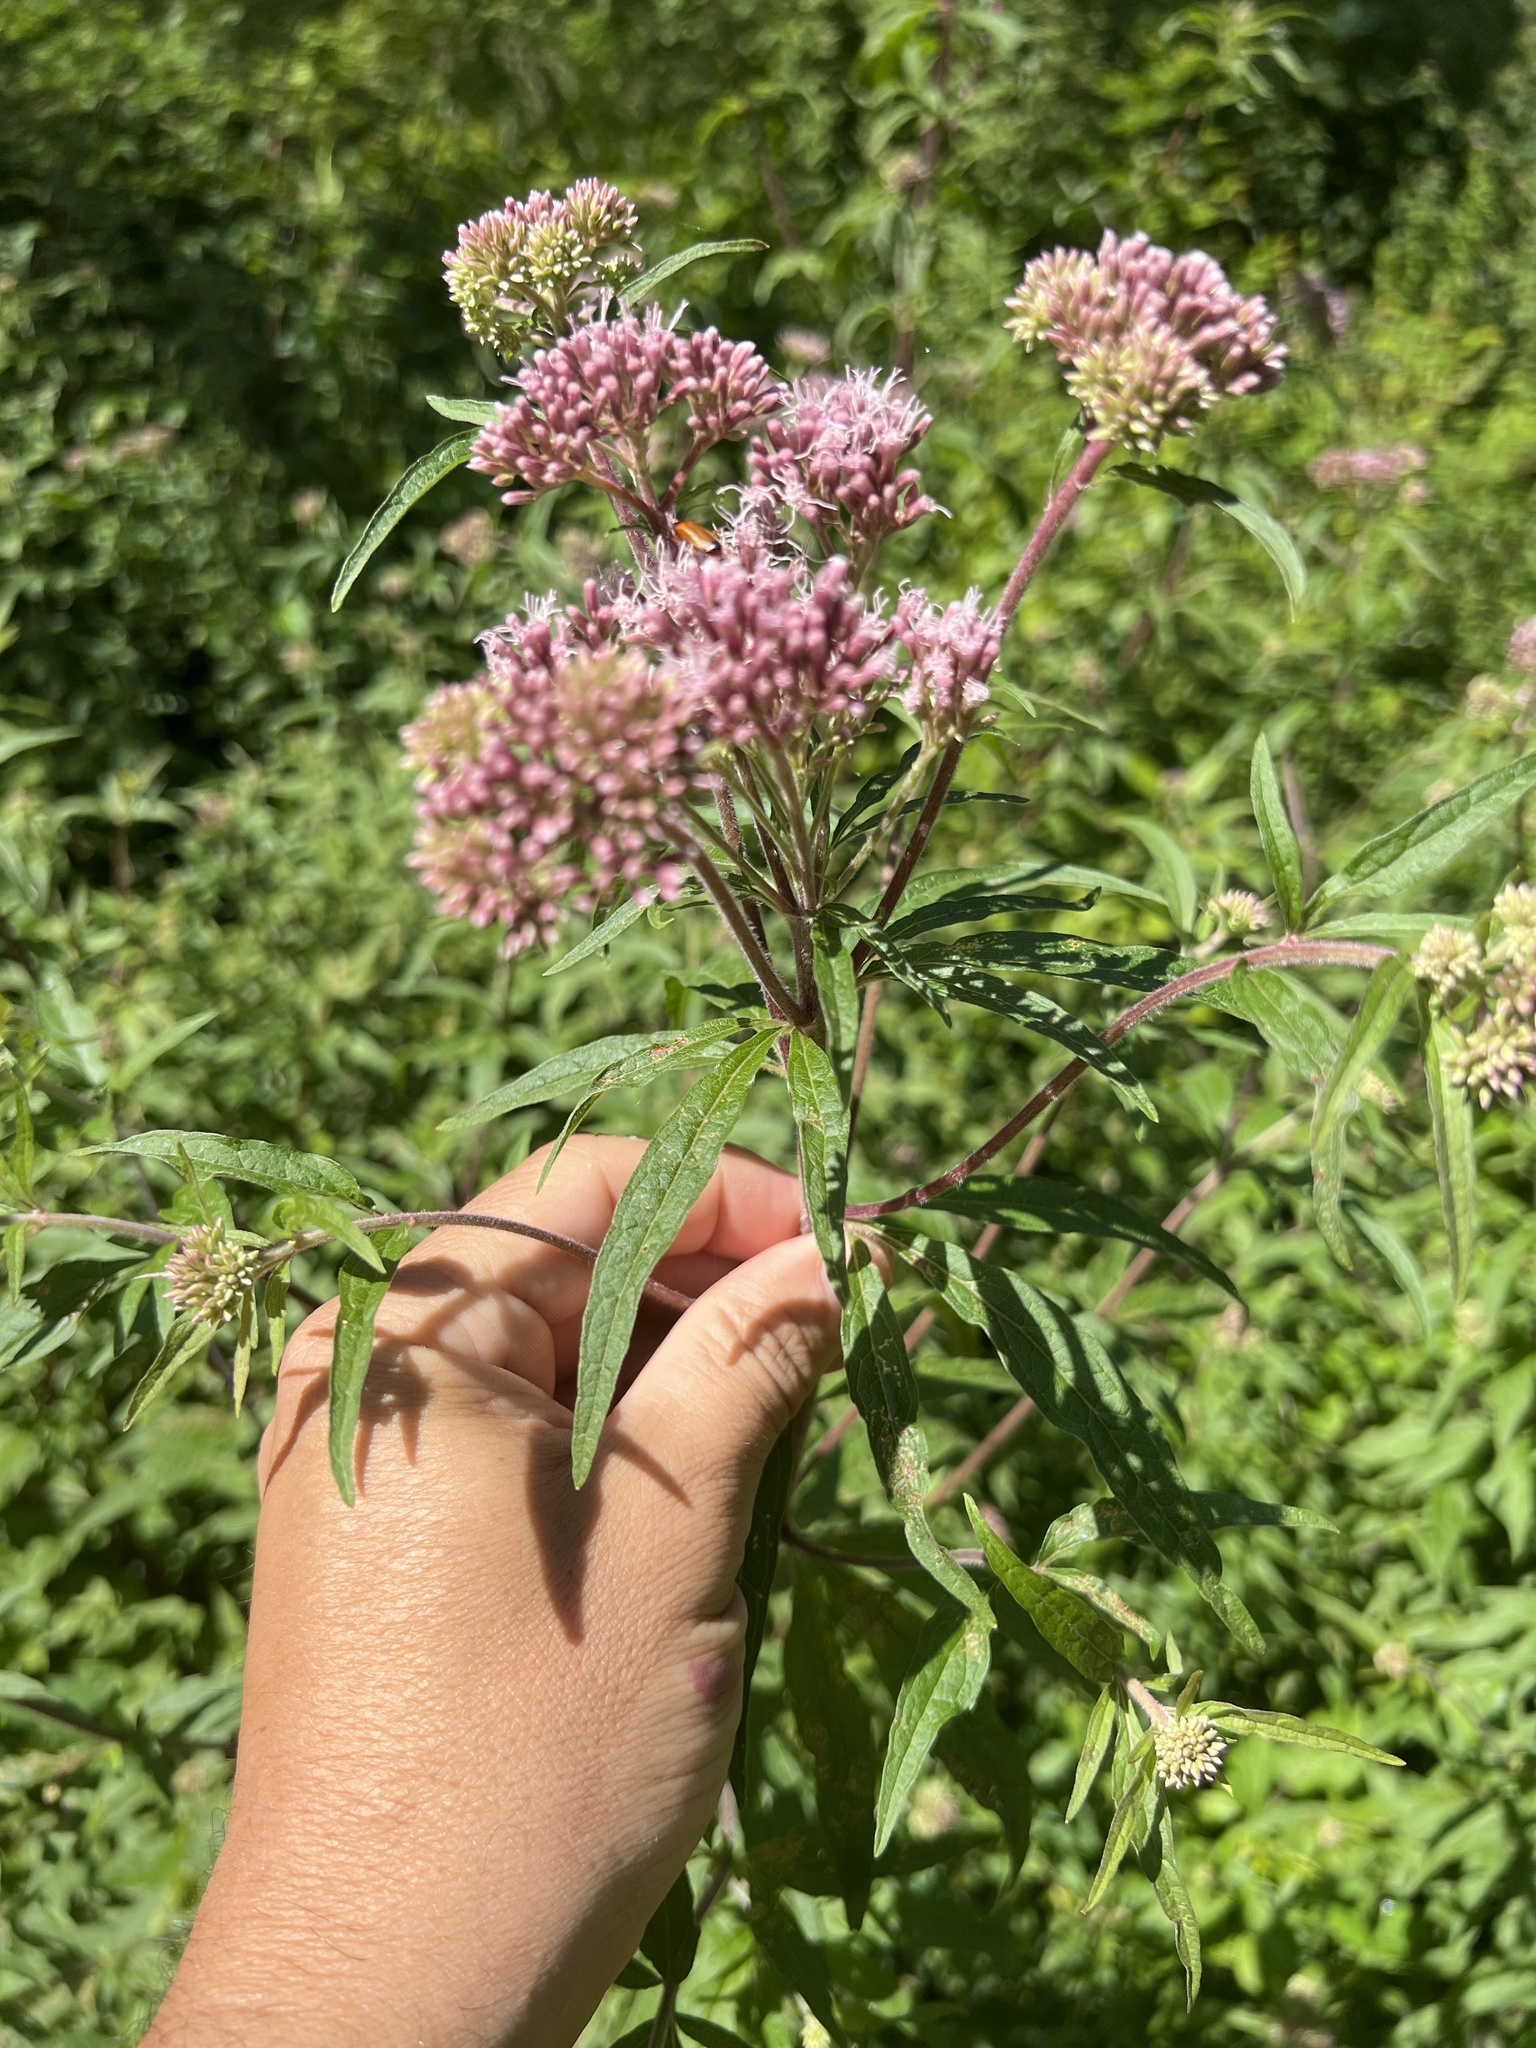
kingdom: Plantae
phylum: Tracheophyta
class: Magnoliopsida
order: Asterales
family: Asteraceae
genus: Eupatorium
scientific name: Eupatorium cannabinum
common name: Hemp-agrimony
